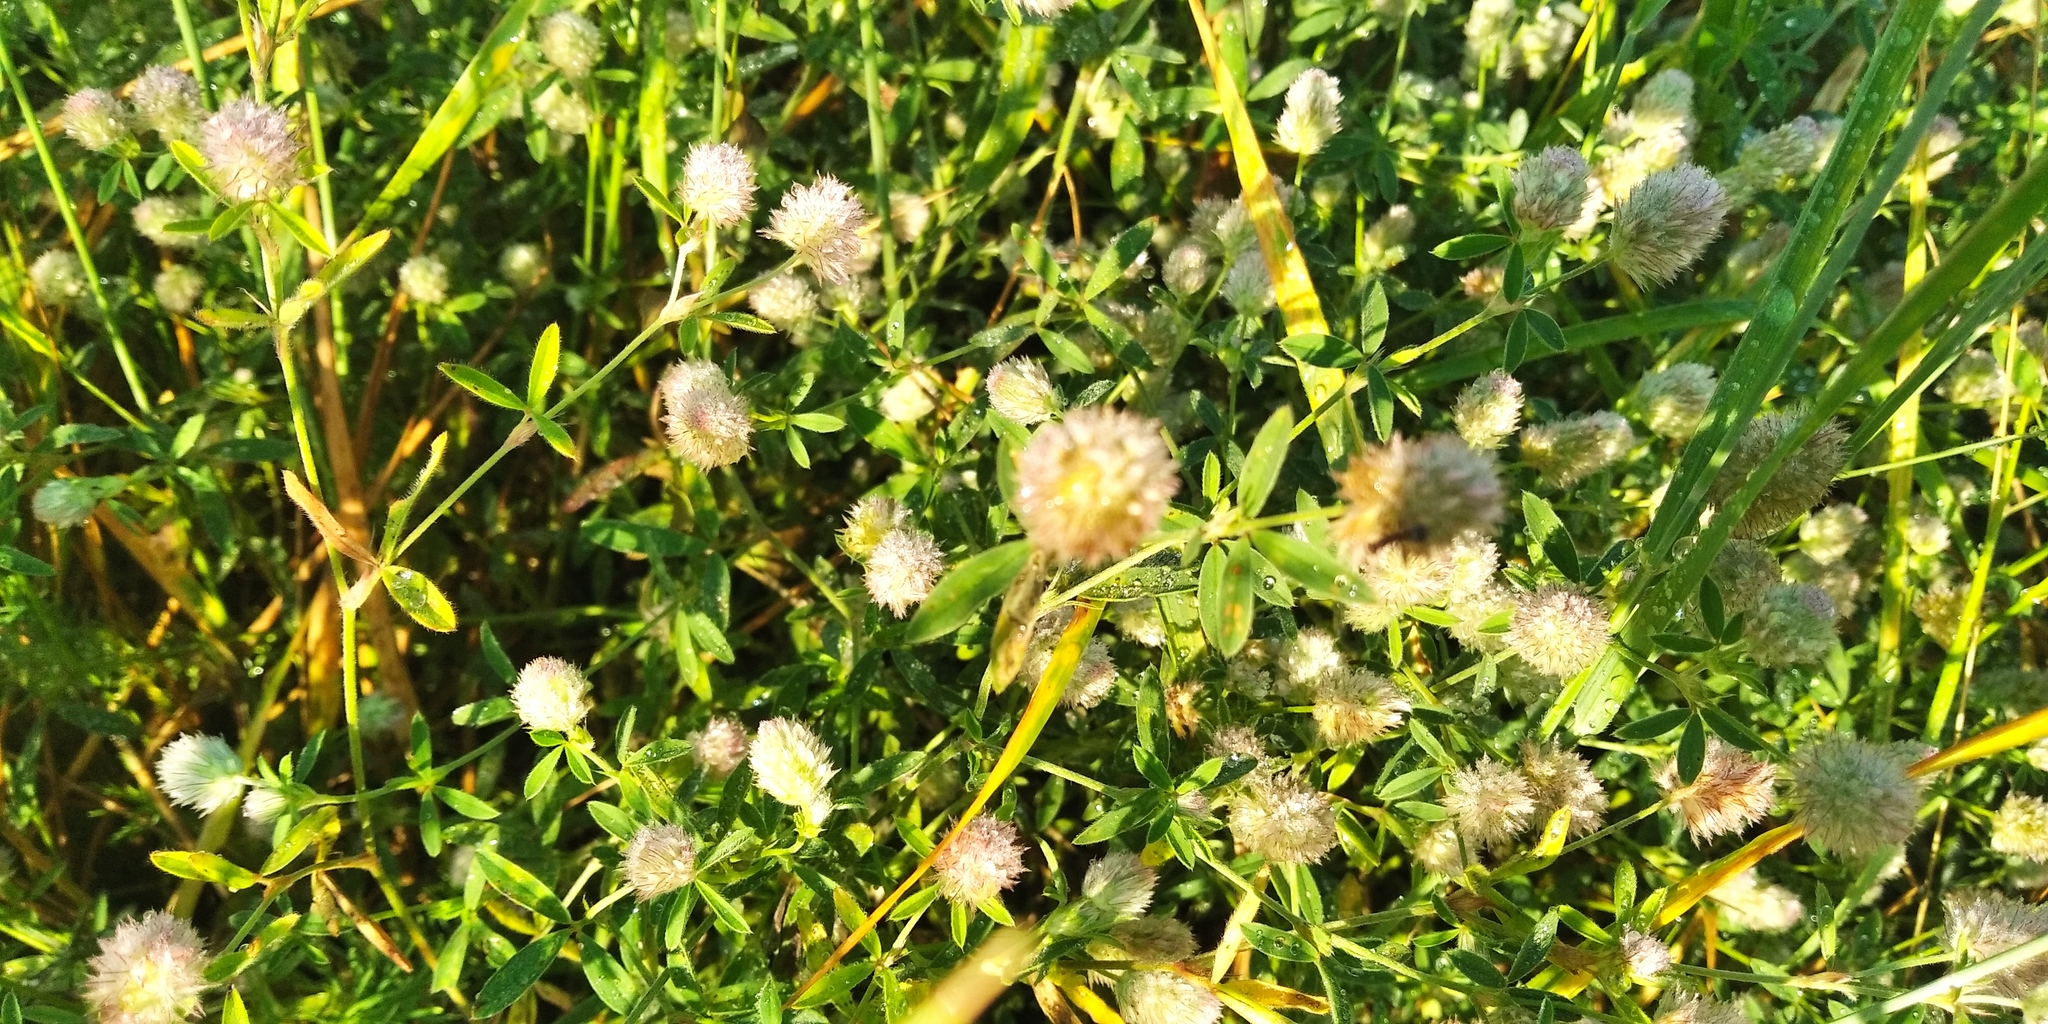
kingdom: Plantae
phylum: Tracheophyta
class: Magnoliopsida
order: Fabales
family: Fabaceae
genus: Trifolium
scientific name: Trifolium arvense
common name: Hare's-foot clover
